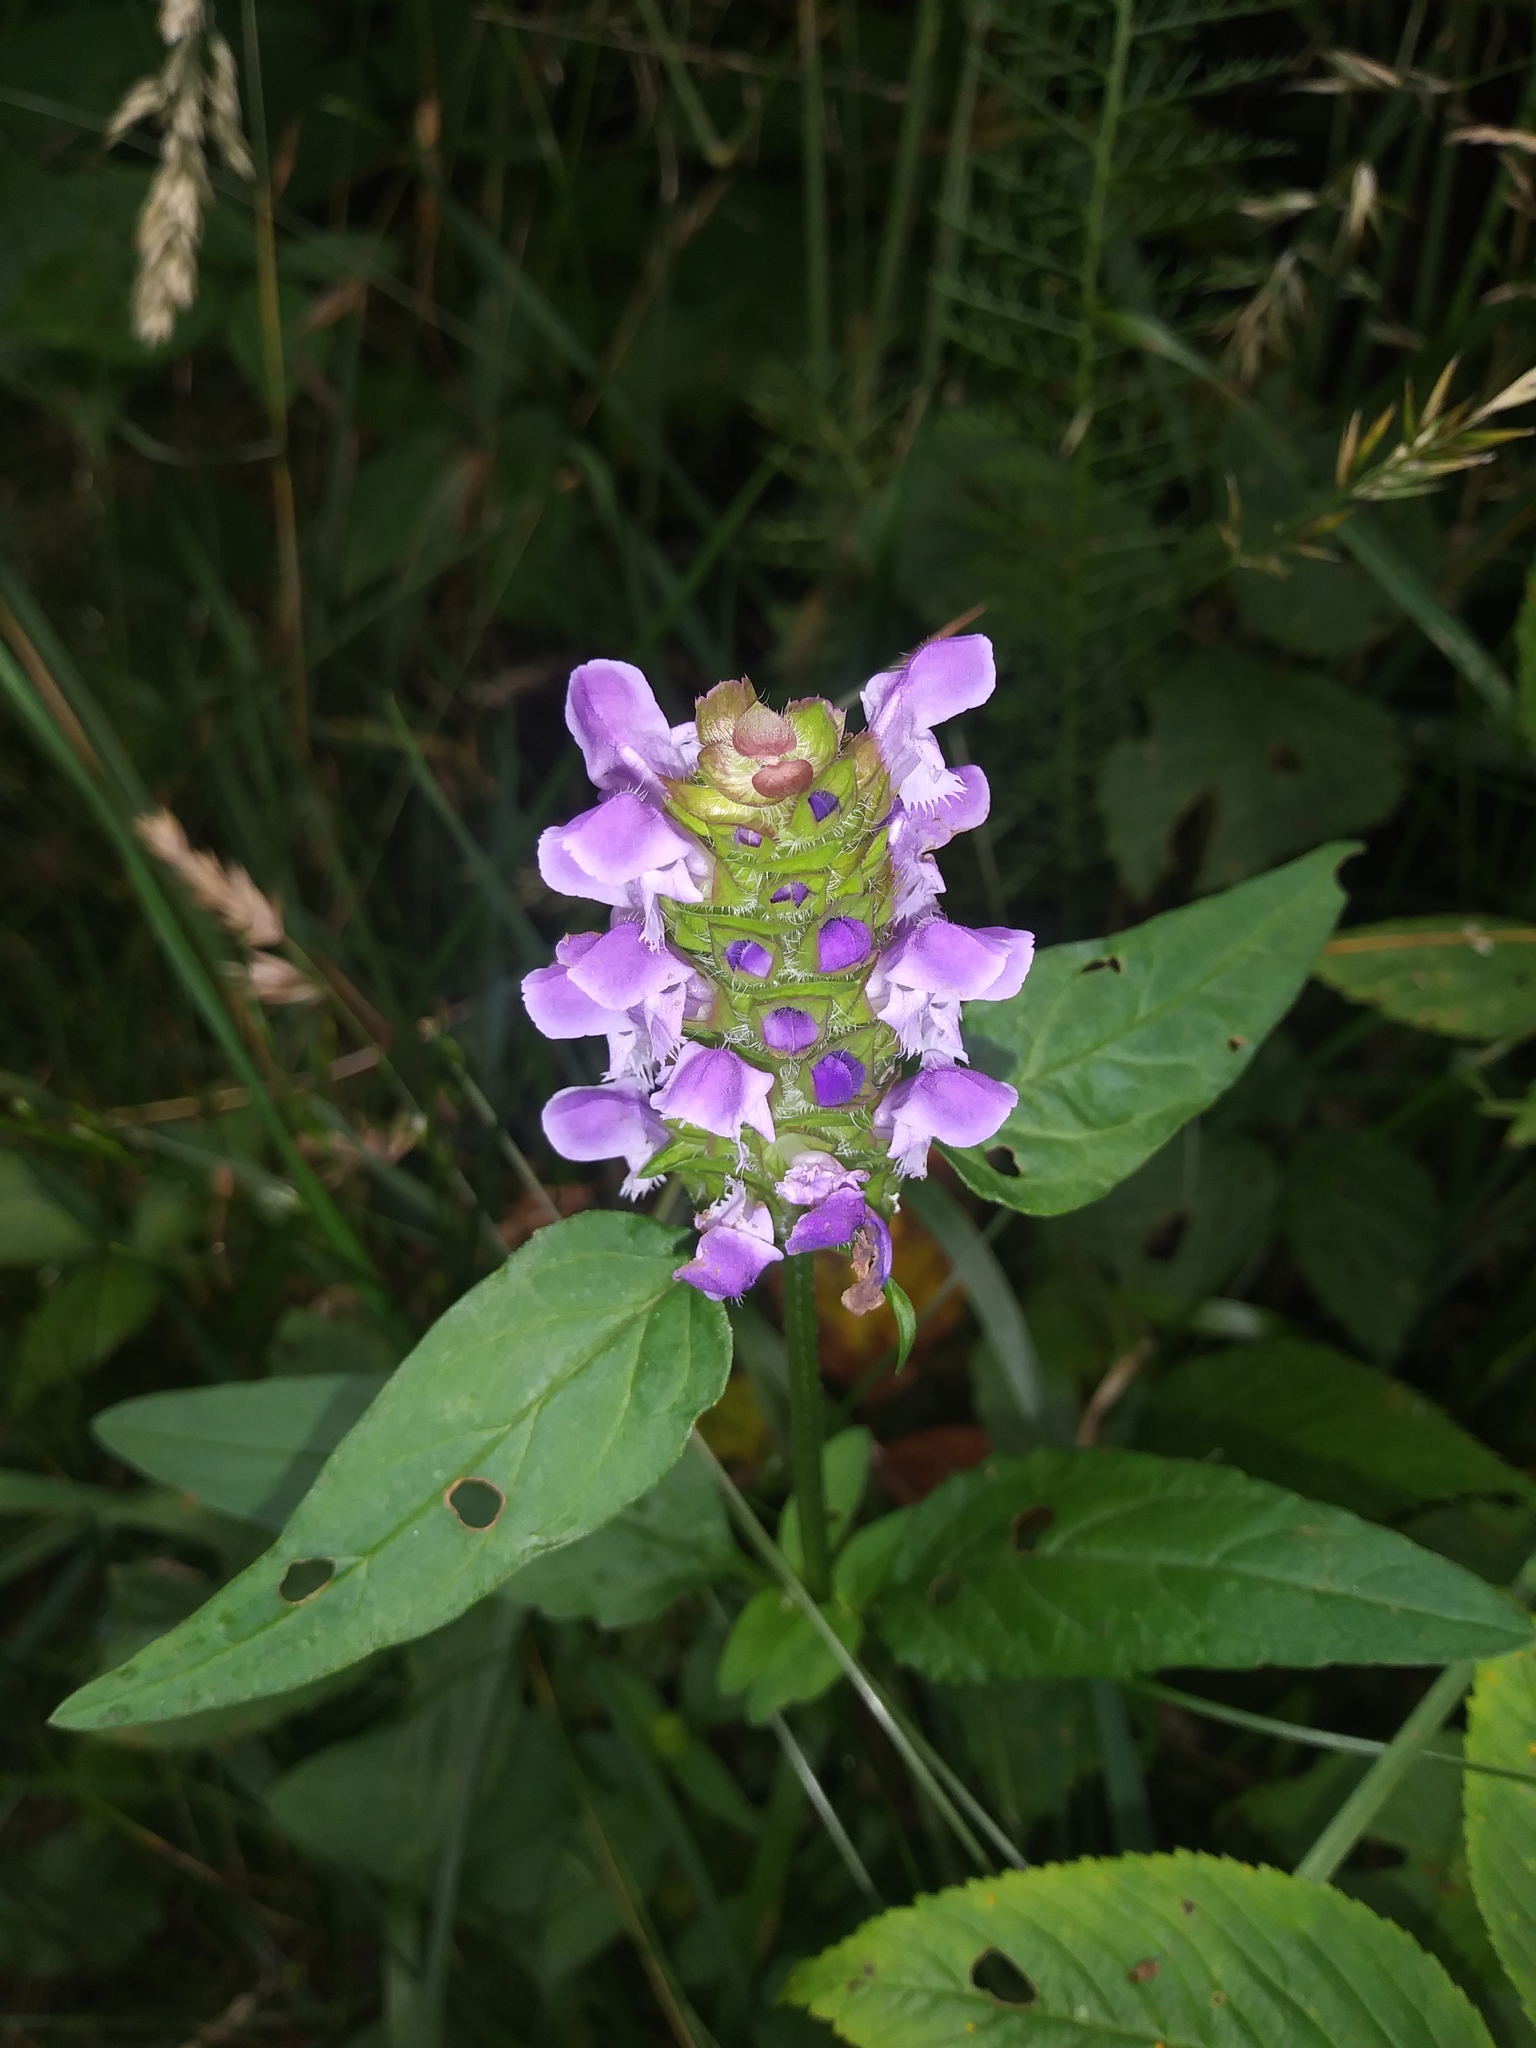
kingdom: Plantae
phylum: Tracheophyta
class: Magnoliopsida
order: Lamiales
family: Lamiaceae
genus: Prunella
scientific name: Prunella vulgaris
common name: Heal-all
